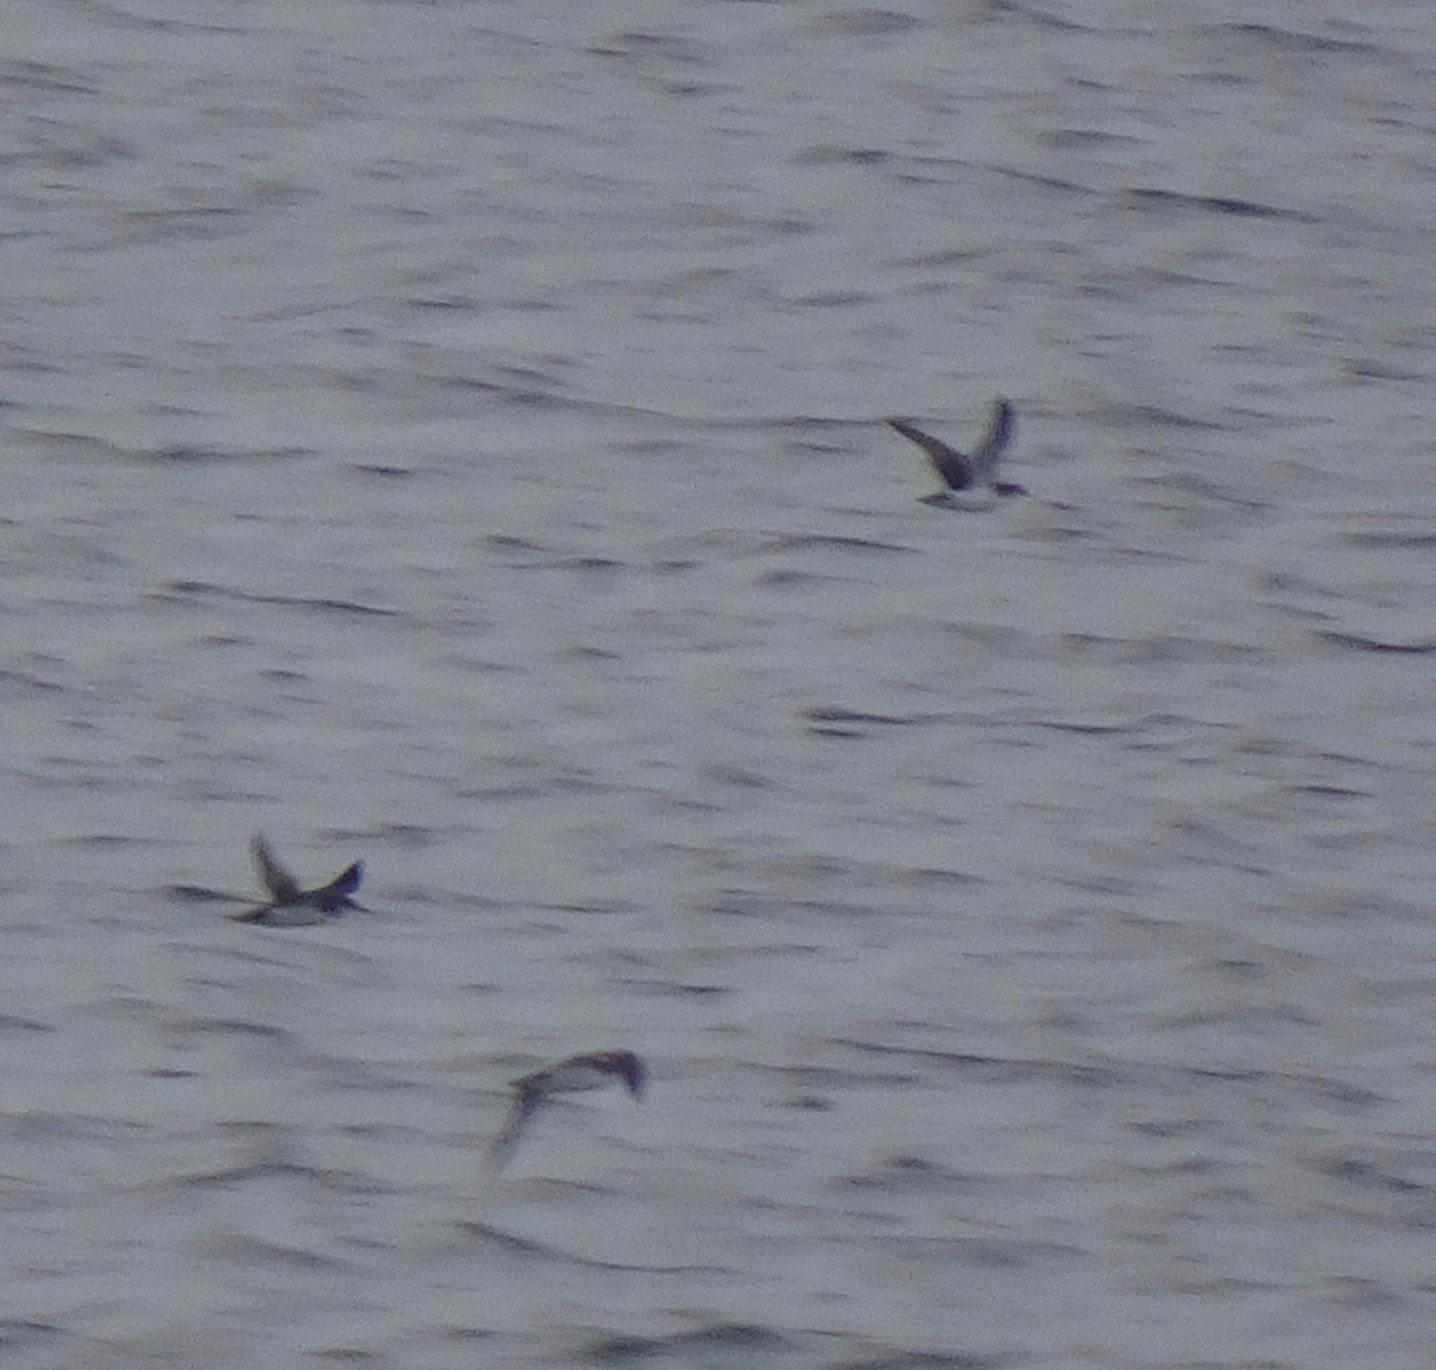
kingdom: Animalia
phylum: Chordata
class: Aves
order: Procellariiformes
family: Procellariidae
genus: Puffinus
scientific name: Puffinus puffinus
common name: Manx shearwater
